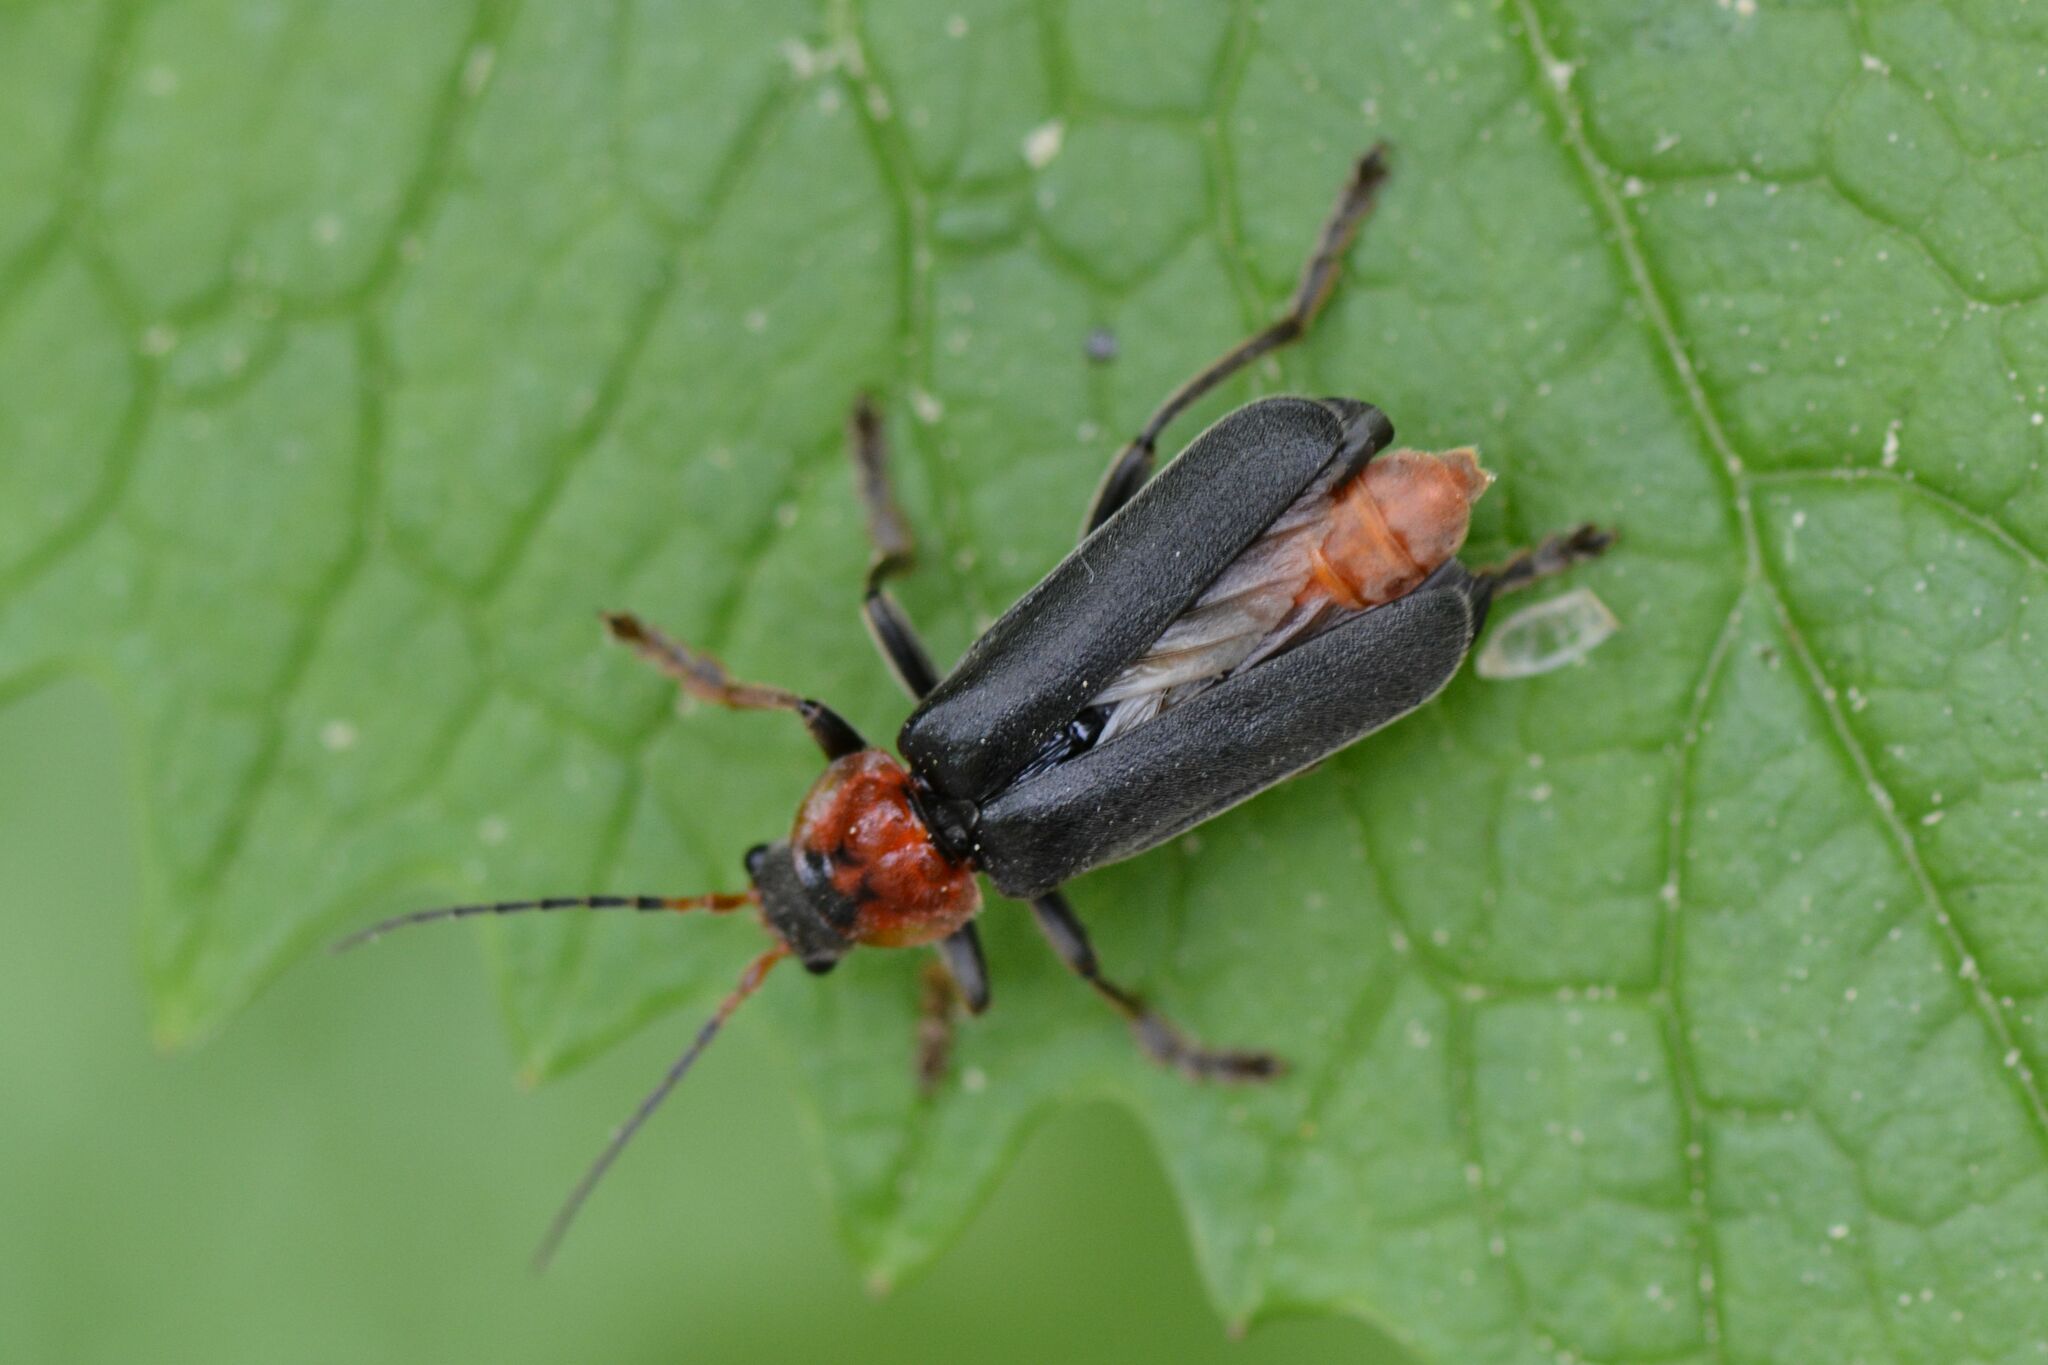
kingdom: Animalia
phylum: Arthropoda
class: Insecta
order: Coleoptera
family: Cantharidae
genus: Cantharis
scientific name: Cantharis fusca
